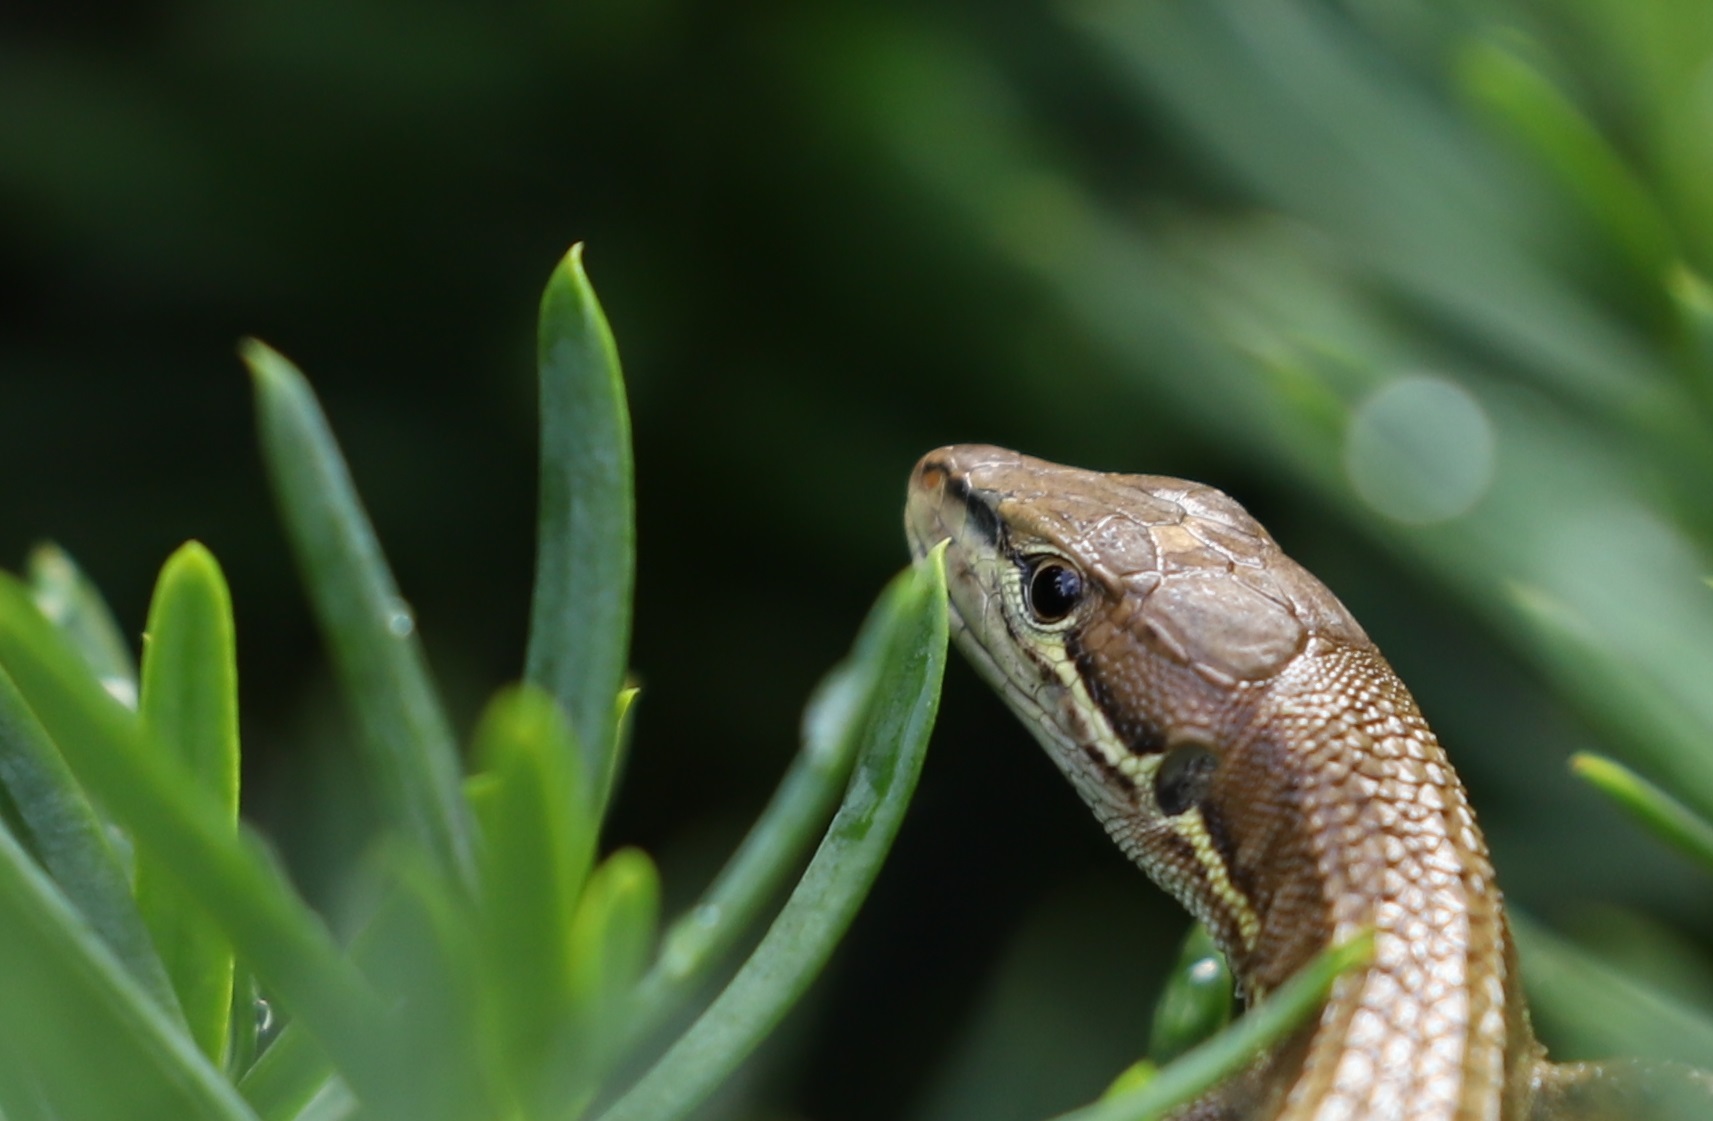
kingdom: Animalia
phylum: Chordata
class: Squamata
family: Lacertidae
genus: Takydromus
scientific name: Takydromus tachydromoides
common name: Japanese grass lizard
